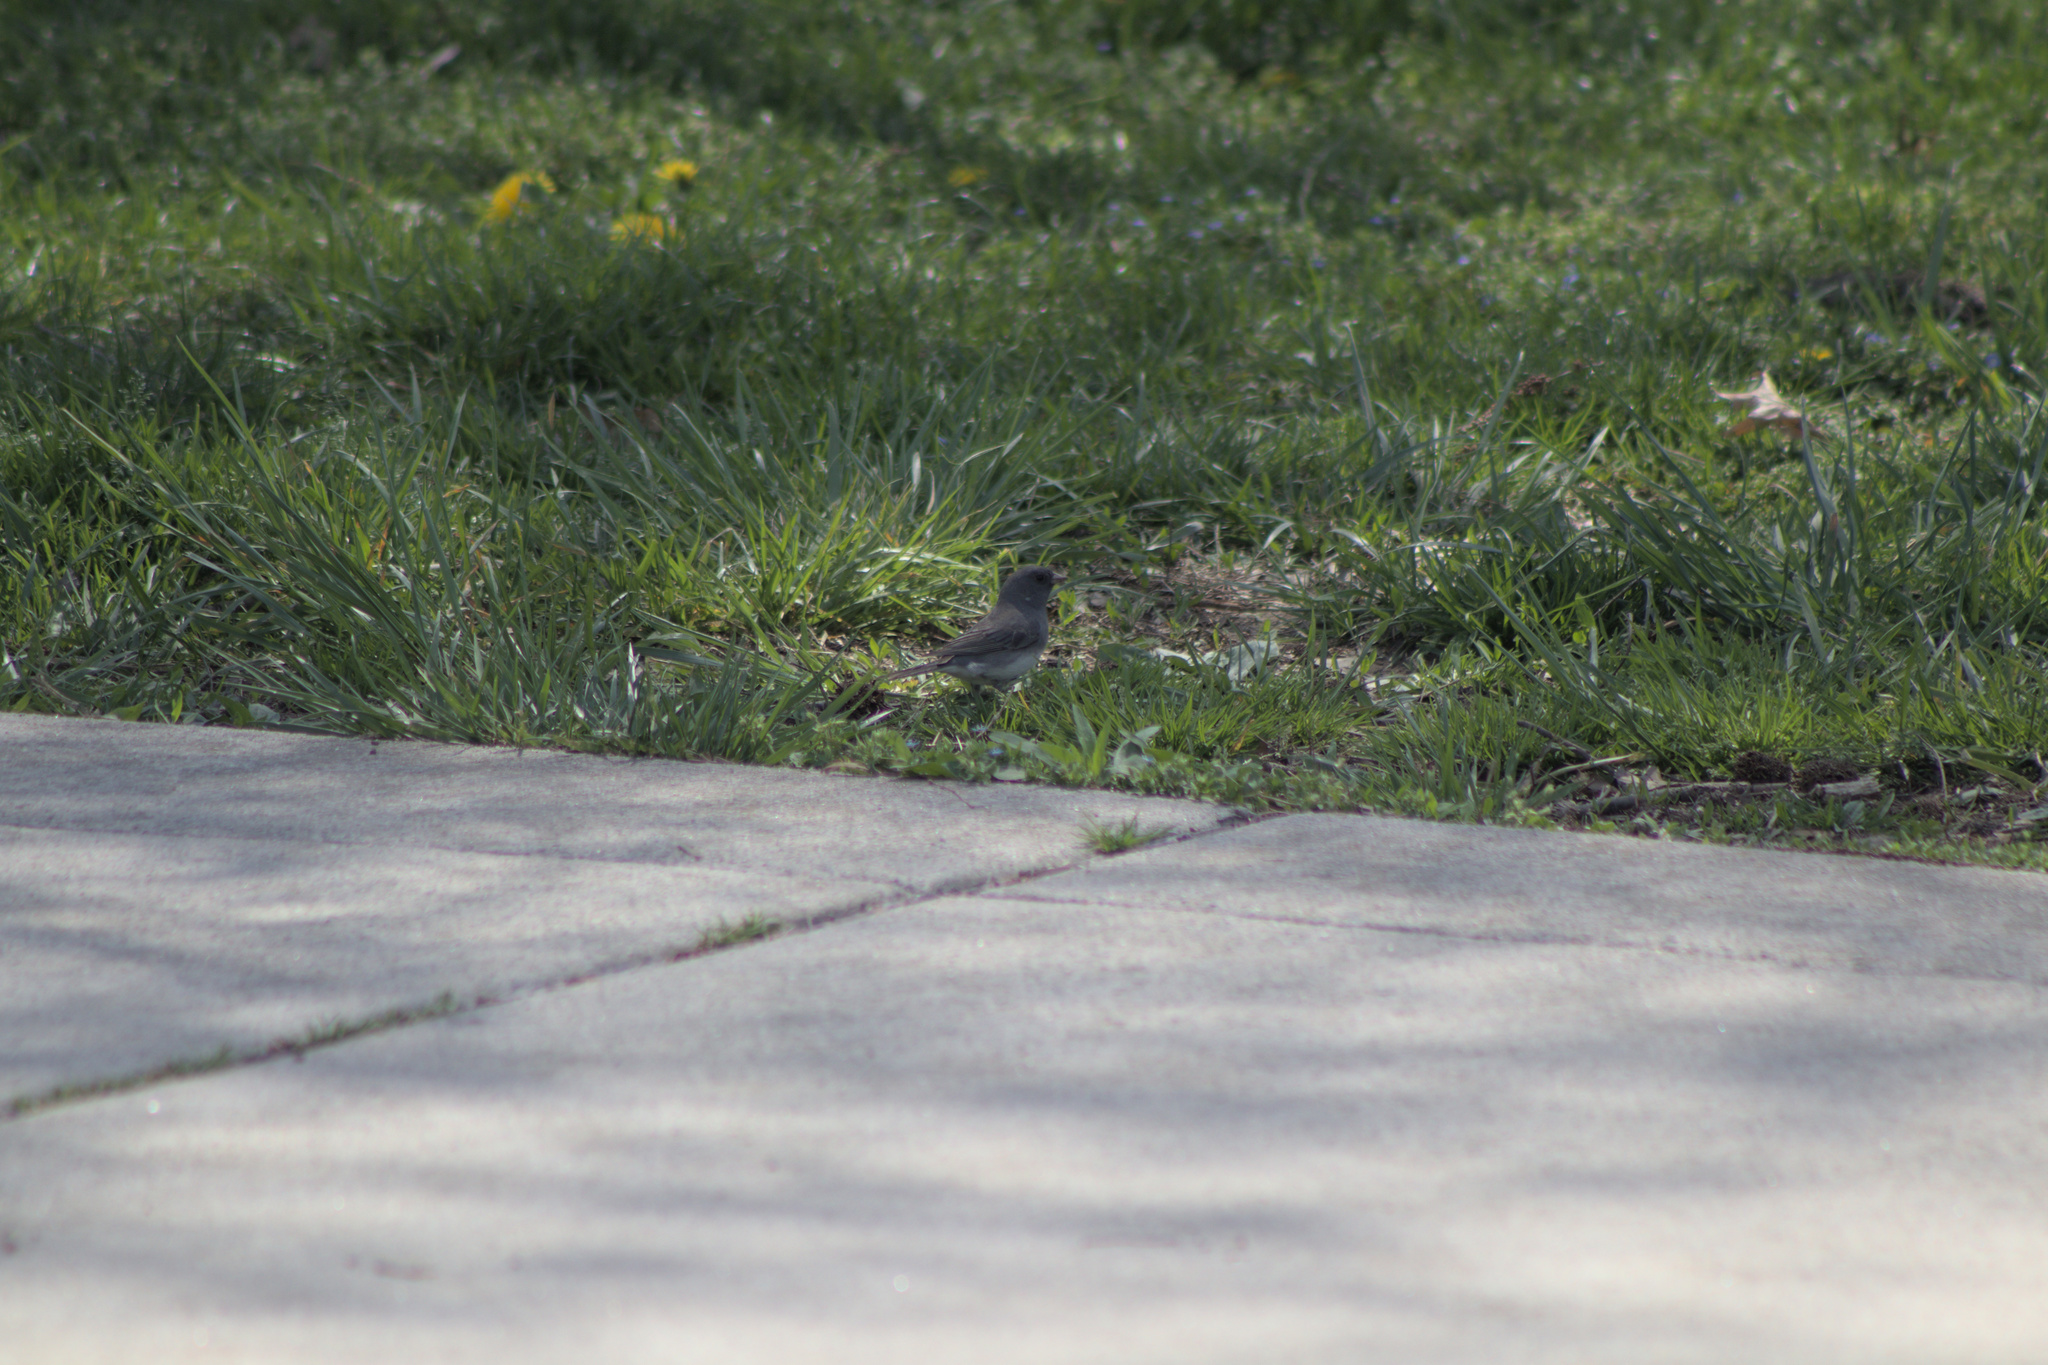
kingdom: Animalia
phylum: Chordata
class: Aves
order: Passeriformes
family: Passerellidae
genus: Junco
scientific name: Junco hyemalis
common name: Dark-eyed junco
